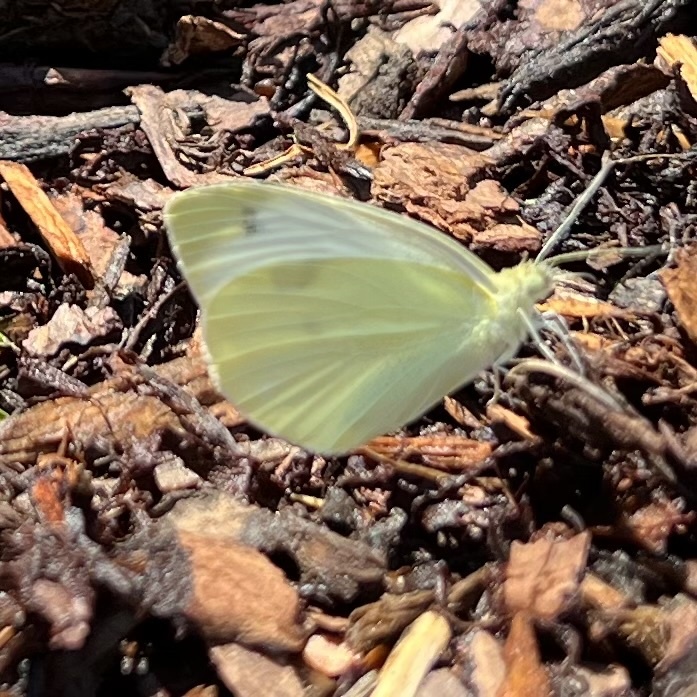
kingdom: Animalia
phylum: Arthropoda
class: Insecta
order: Lepidoptera
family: Pieridae
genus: Pieris
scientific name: Pieris rapae
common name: Small white
